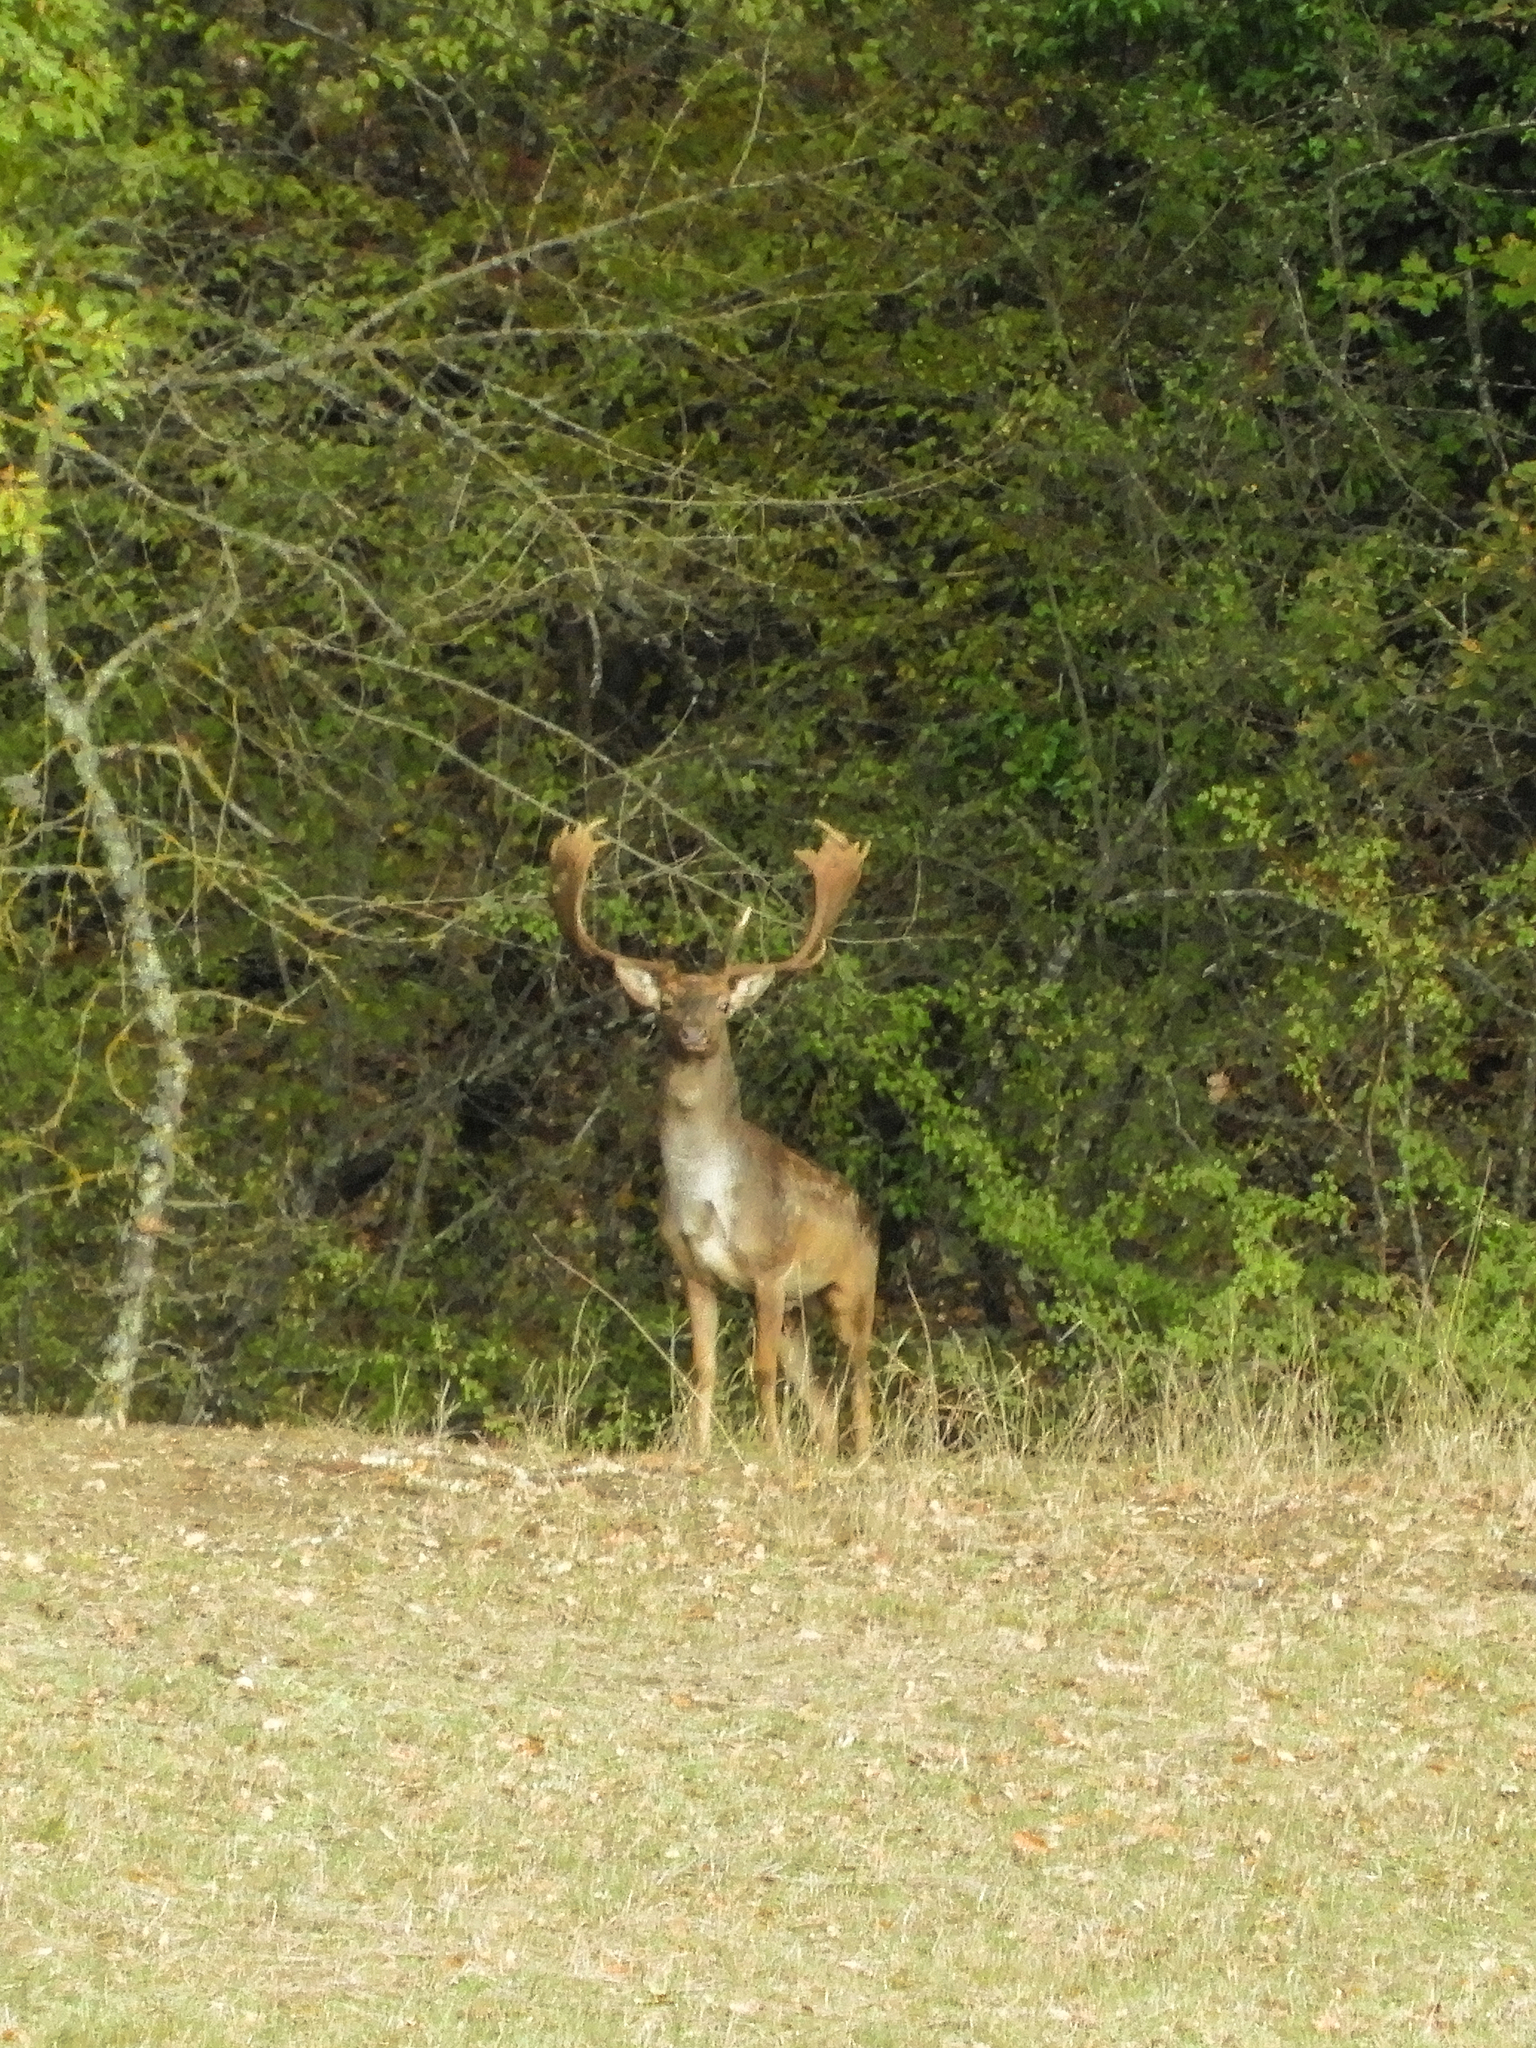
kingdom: Animalia
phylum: Chordata
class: Mammalia
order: Artiodactyla
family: Cervidae
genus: Dama
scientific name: Dama dama
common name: Fallow deer
